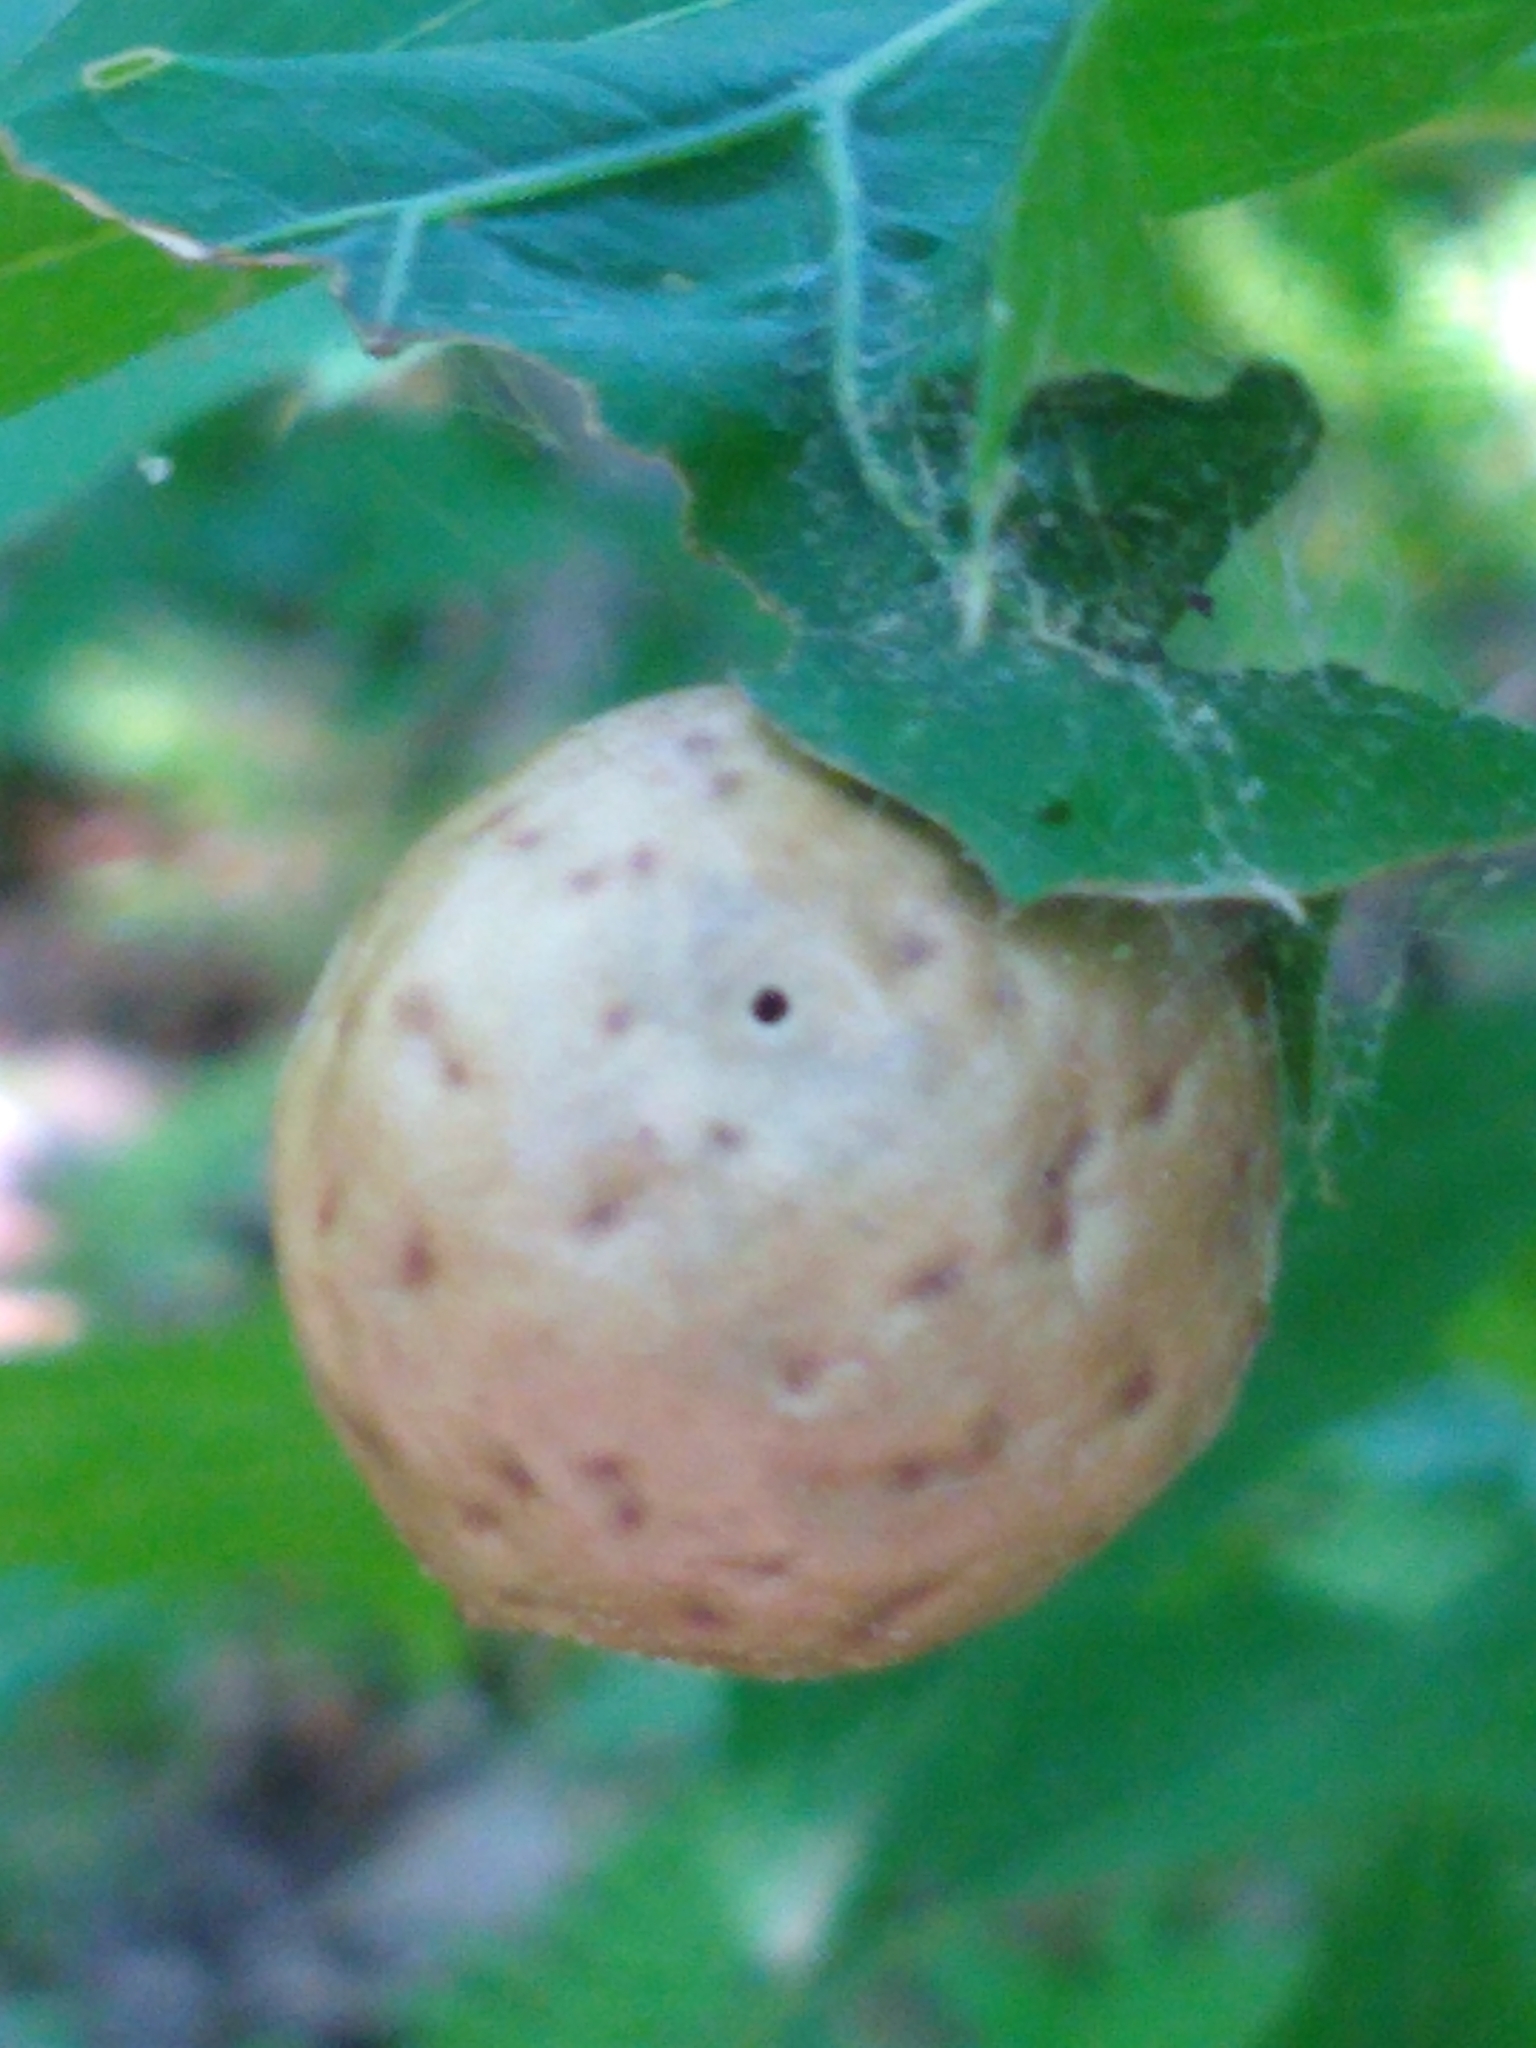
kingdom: Animalia
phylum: Arthropoda
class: Insecta
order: Hymenoptera
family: Cynipidae
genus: Amphibolips
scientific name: Amphibolips
